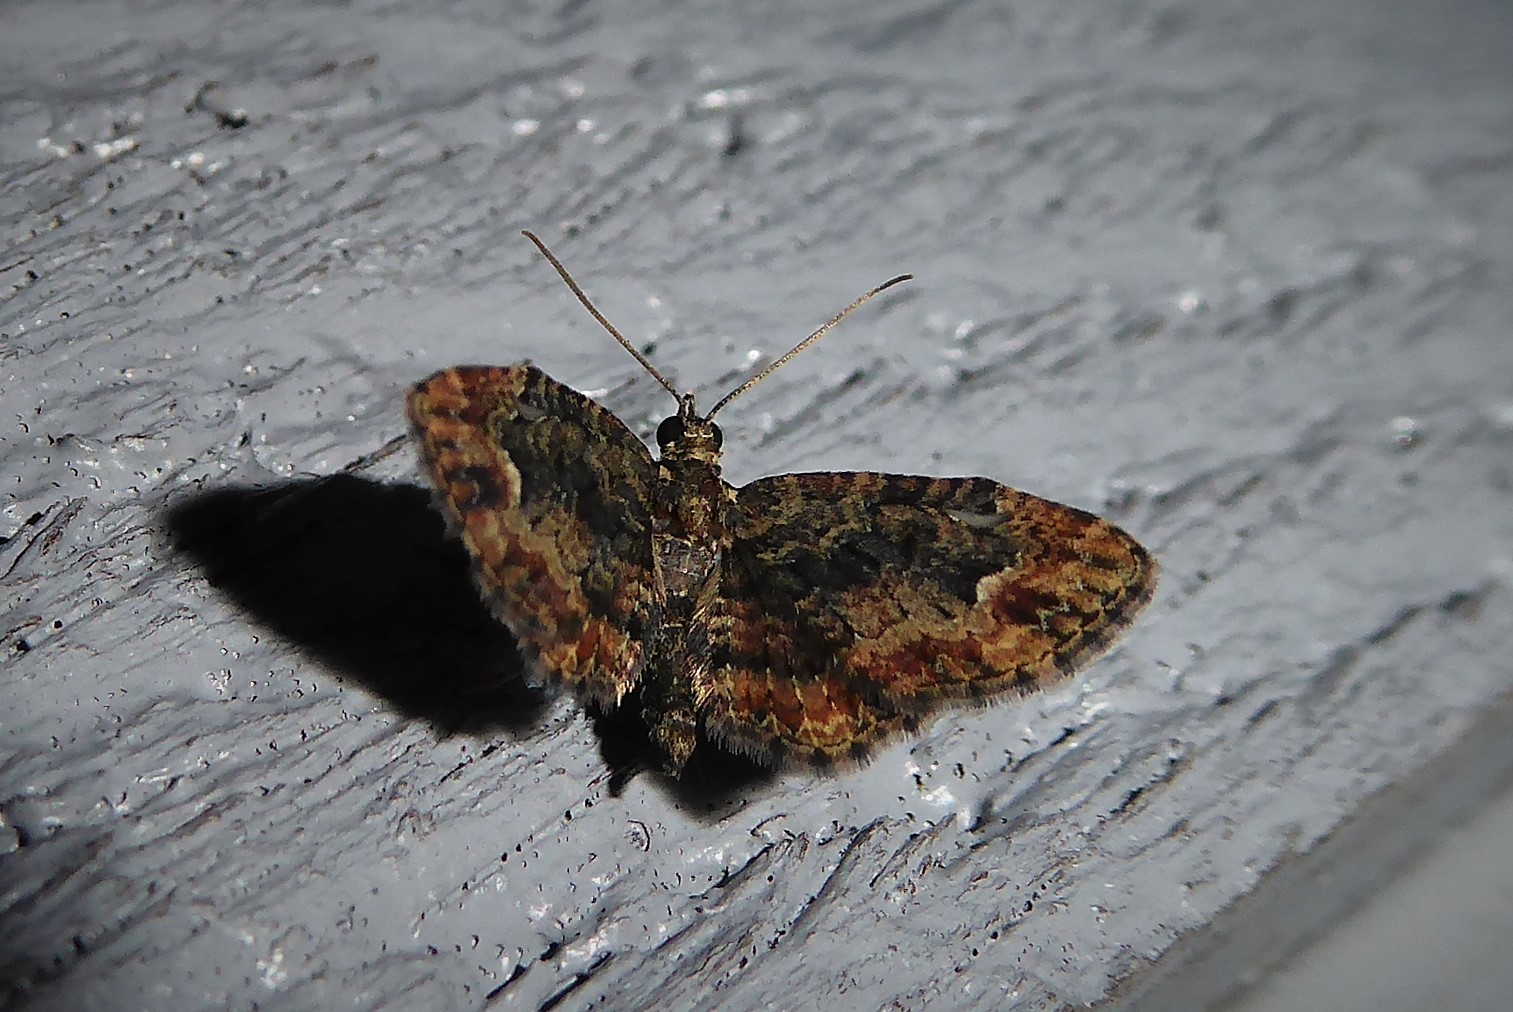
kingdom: Animalia
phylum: Arthropoda
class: Insecta
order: Lepidoptera
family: Geometridae
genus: Pasiphilodes
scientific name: Pasiphilodes testulata
